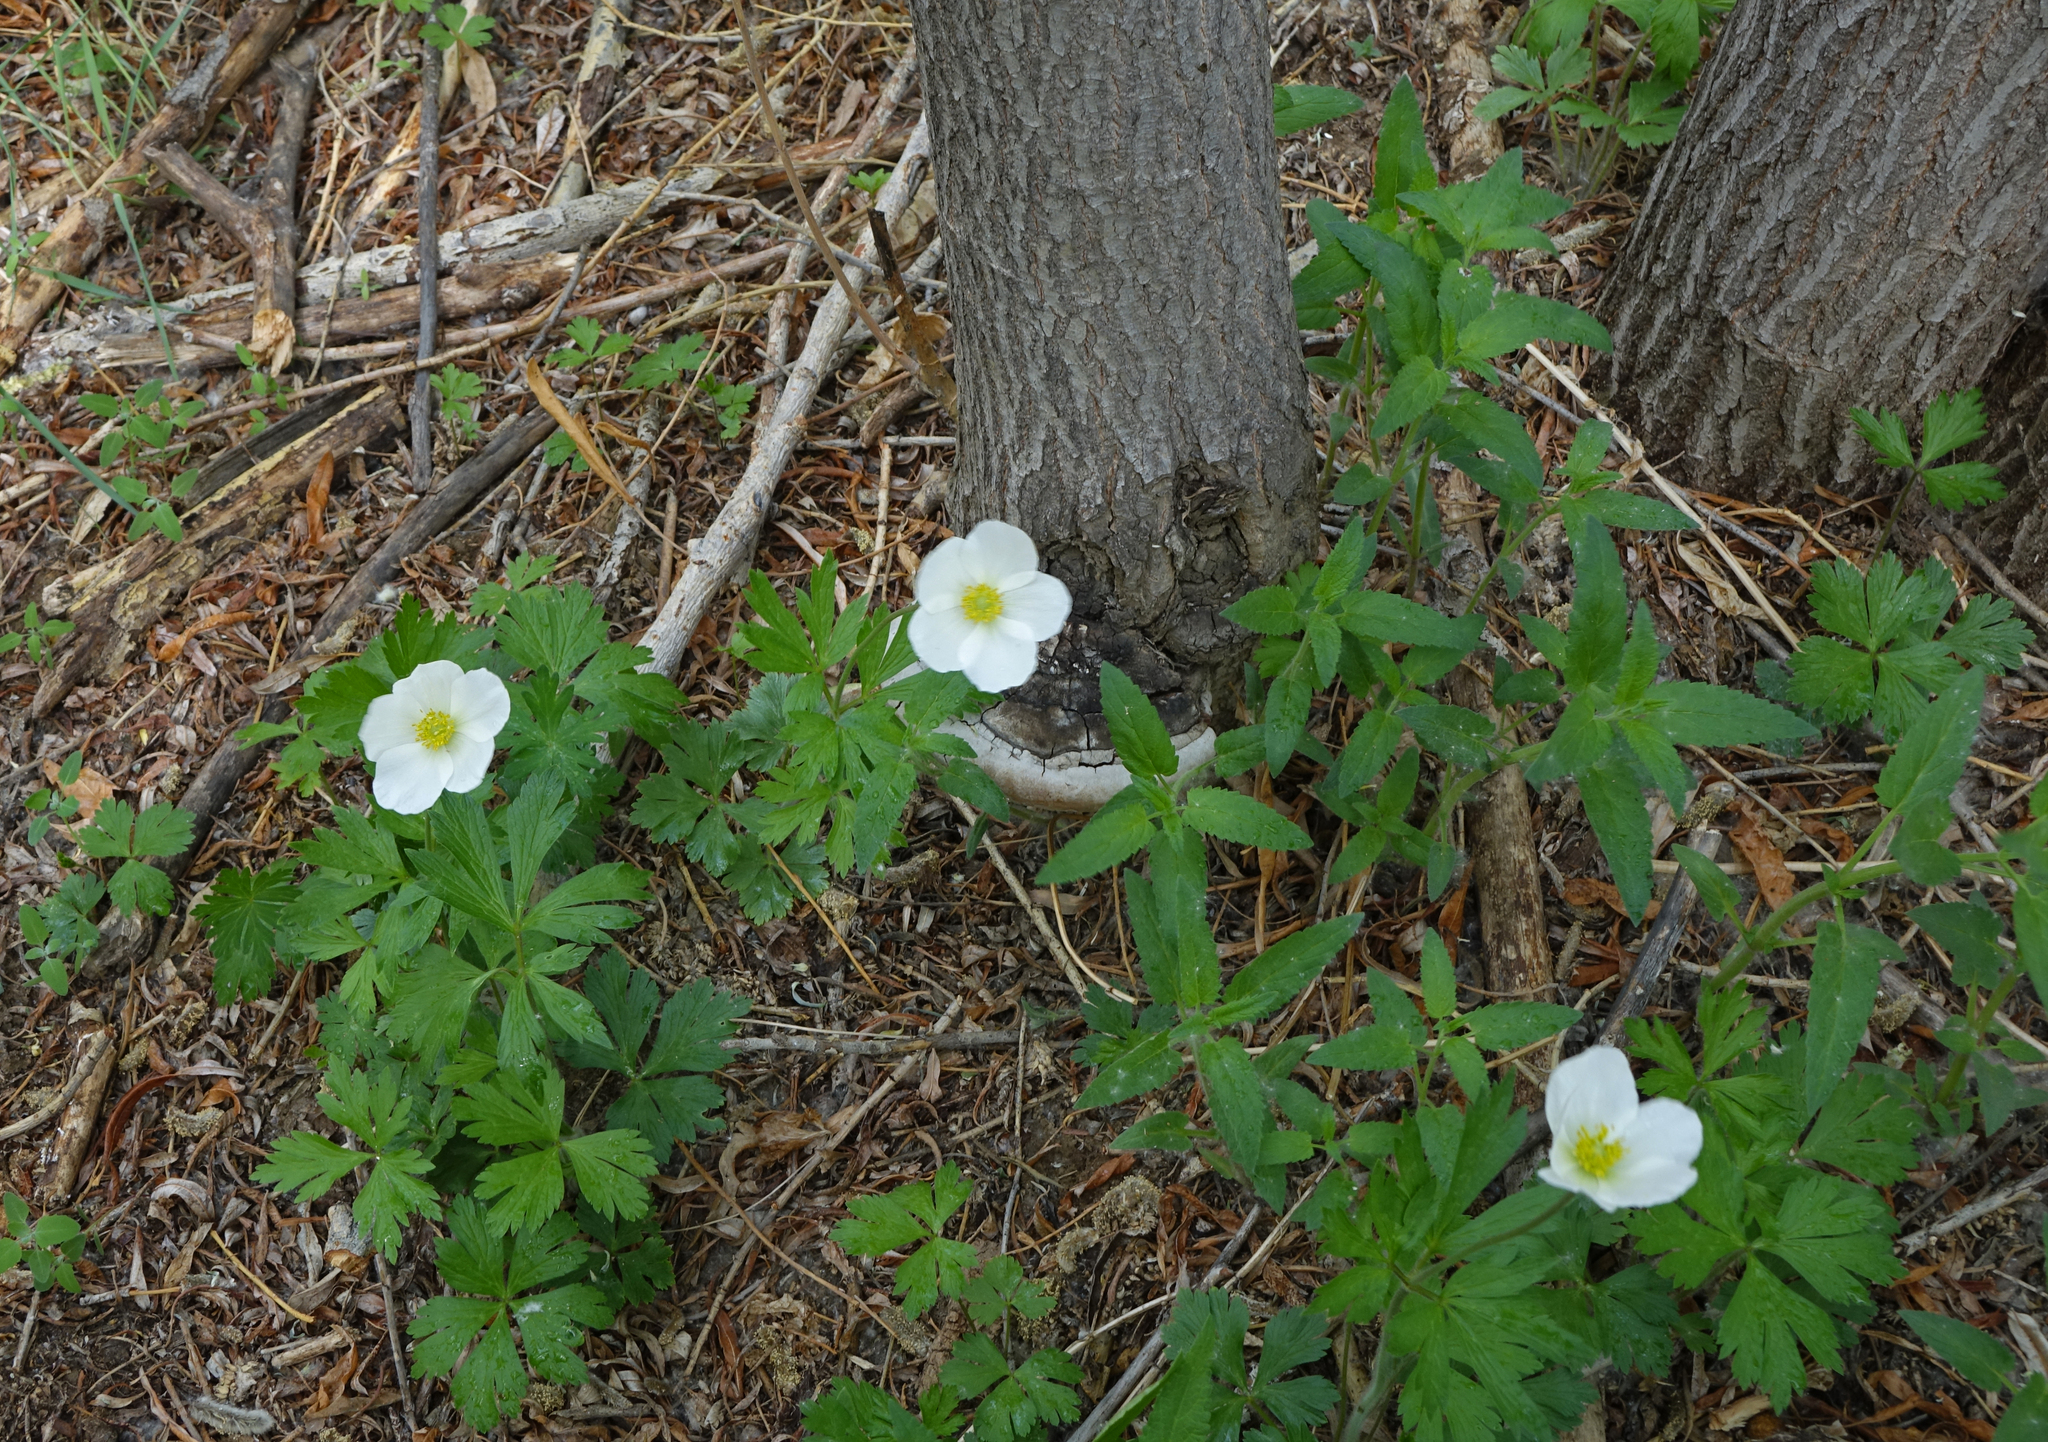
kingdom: Plantae
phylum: Tracheophyta
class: Magnoliopsida
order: Ranunculales
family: Ranunculaceae
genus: Anemone
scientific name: Anemone sylvestris
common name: Snowdrop anemone
